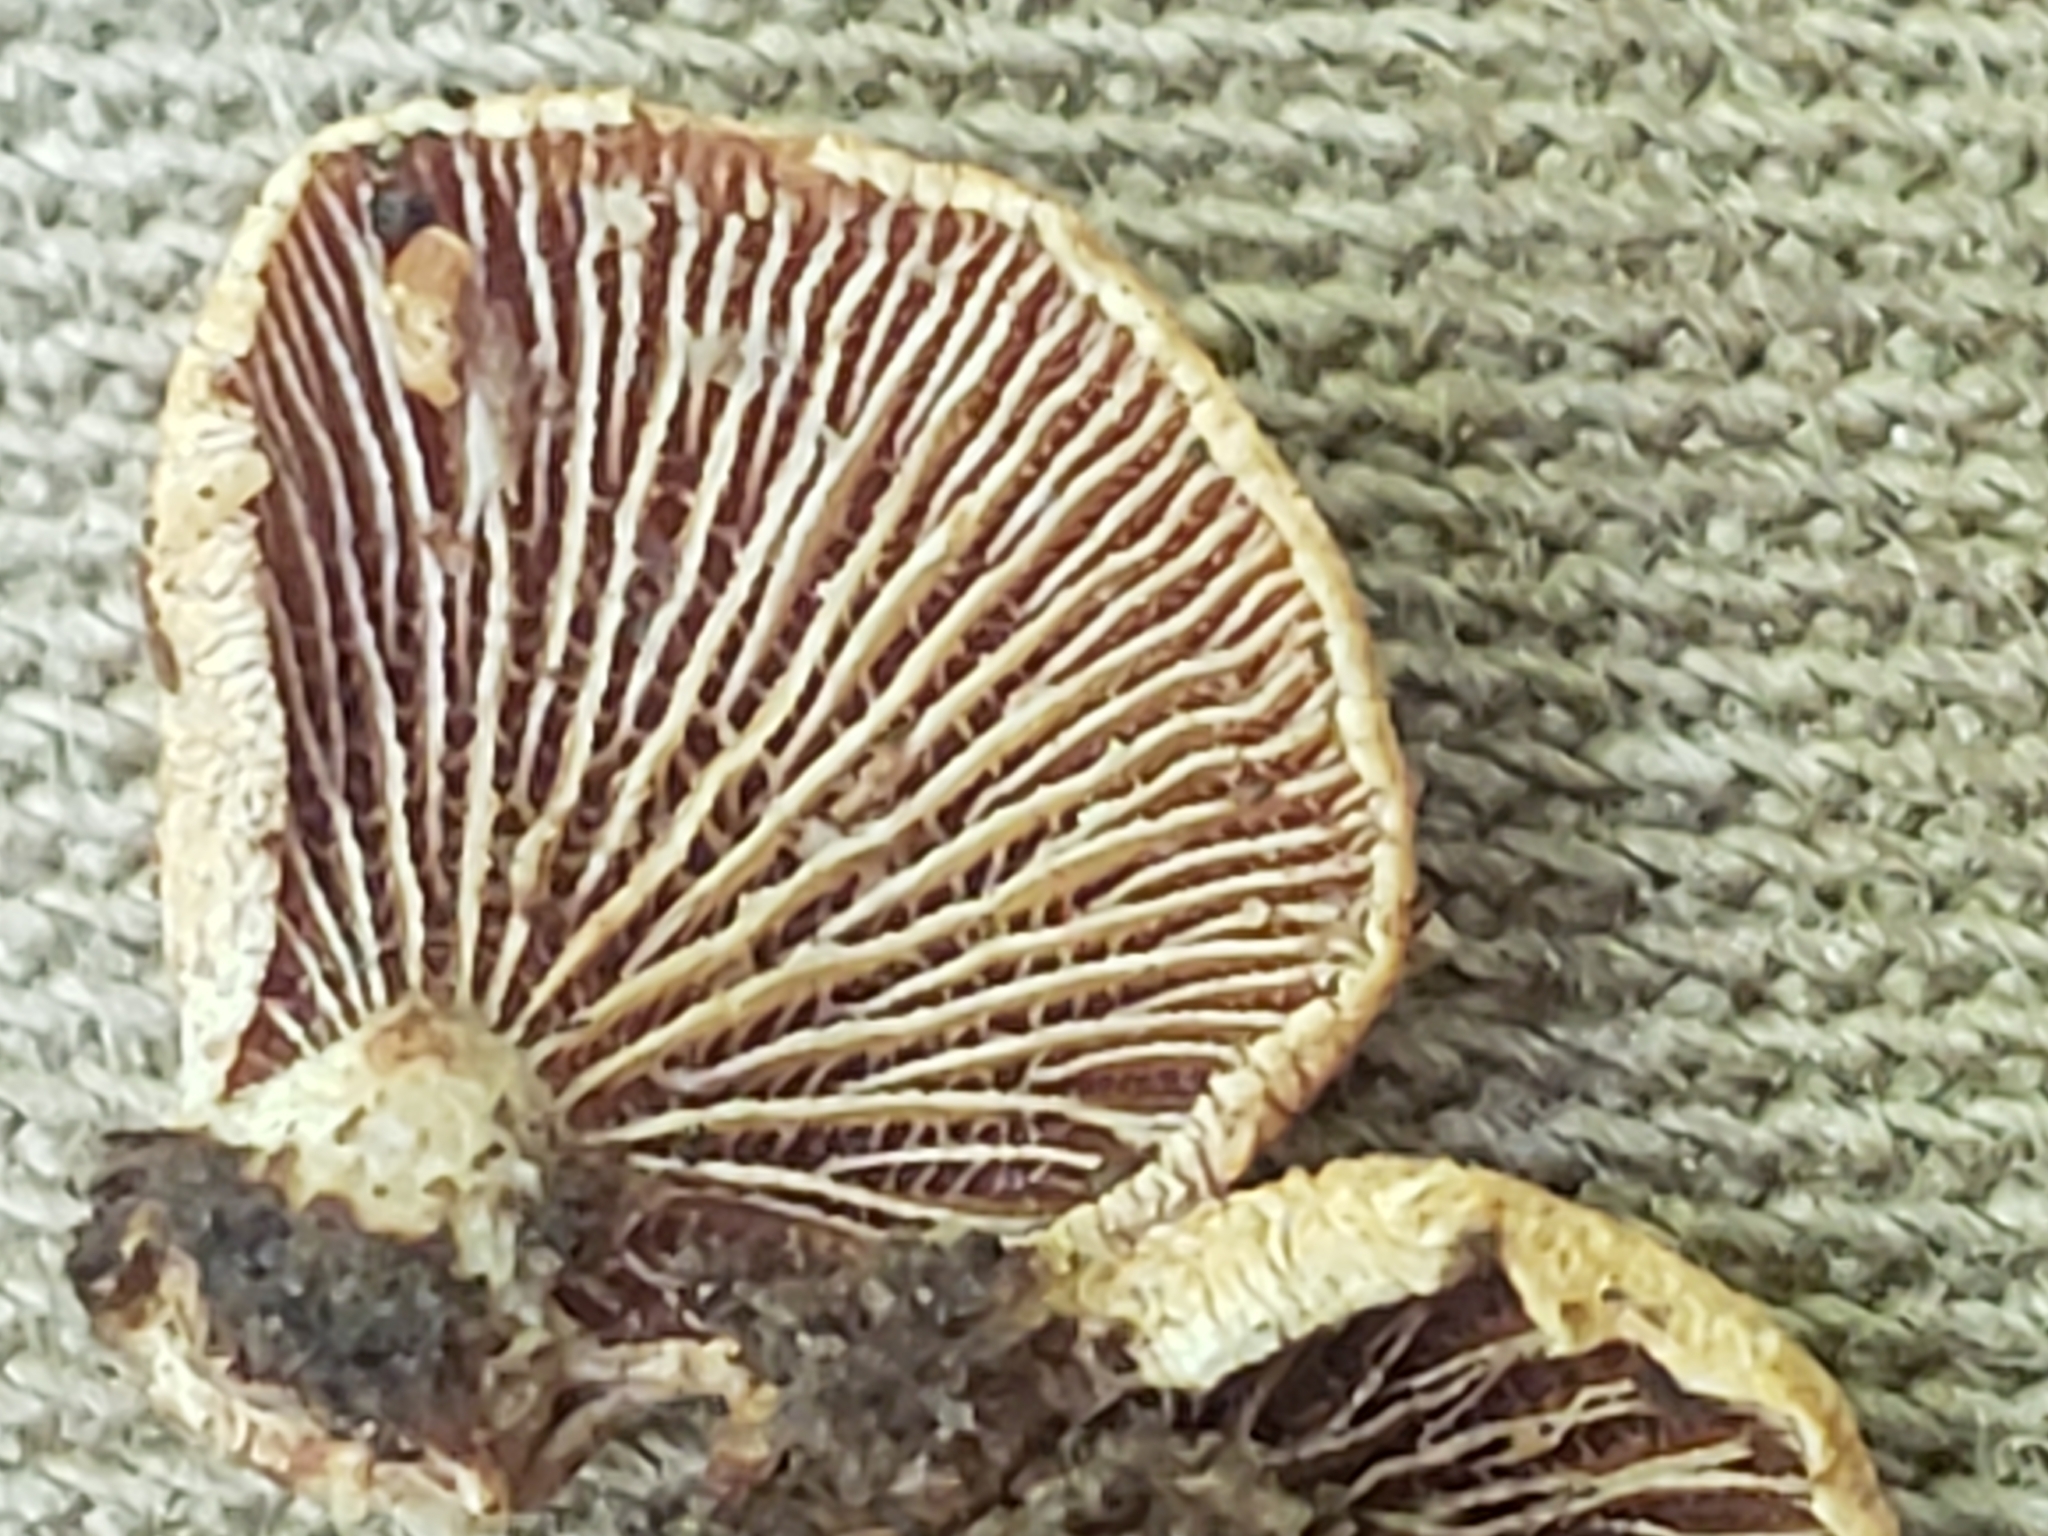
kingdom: Fungi
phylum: Basidiomycota
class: Agaricomycetes
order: Agaricales
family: Mycenaceae
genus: Panellus
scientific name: Panellus stipticus
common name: Bitter oysterling
